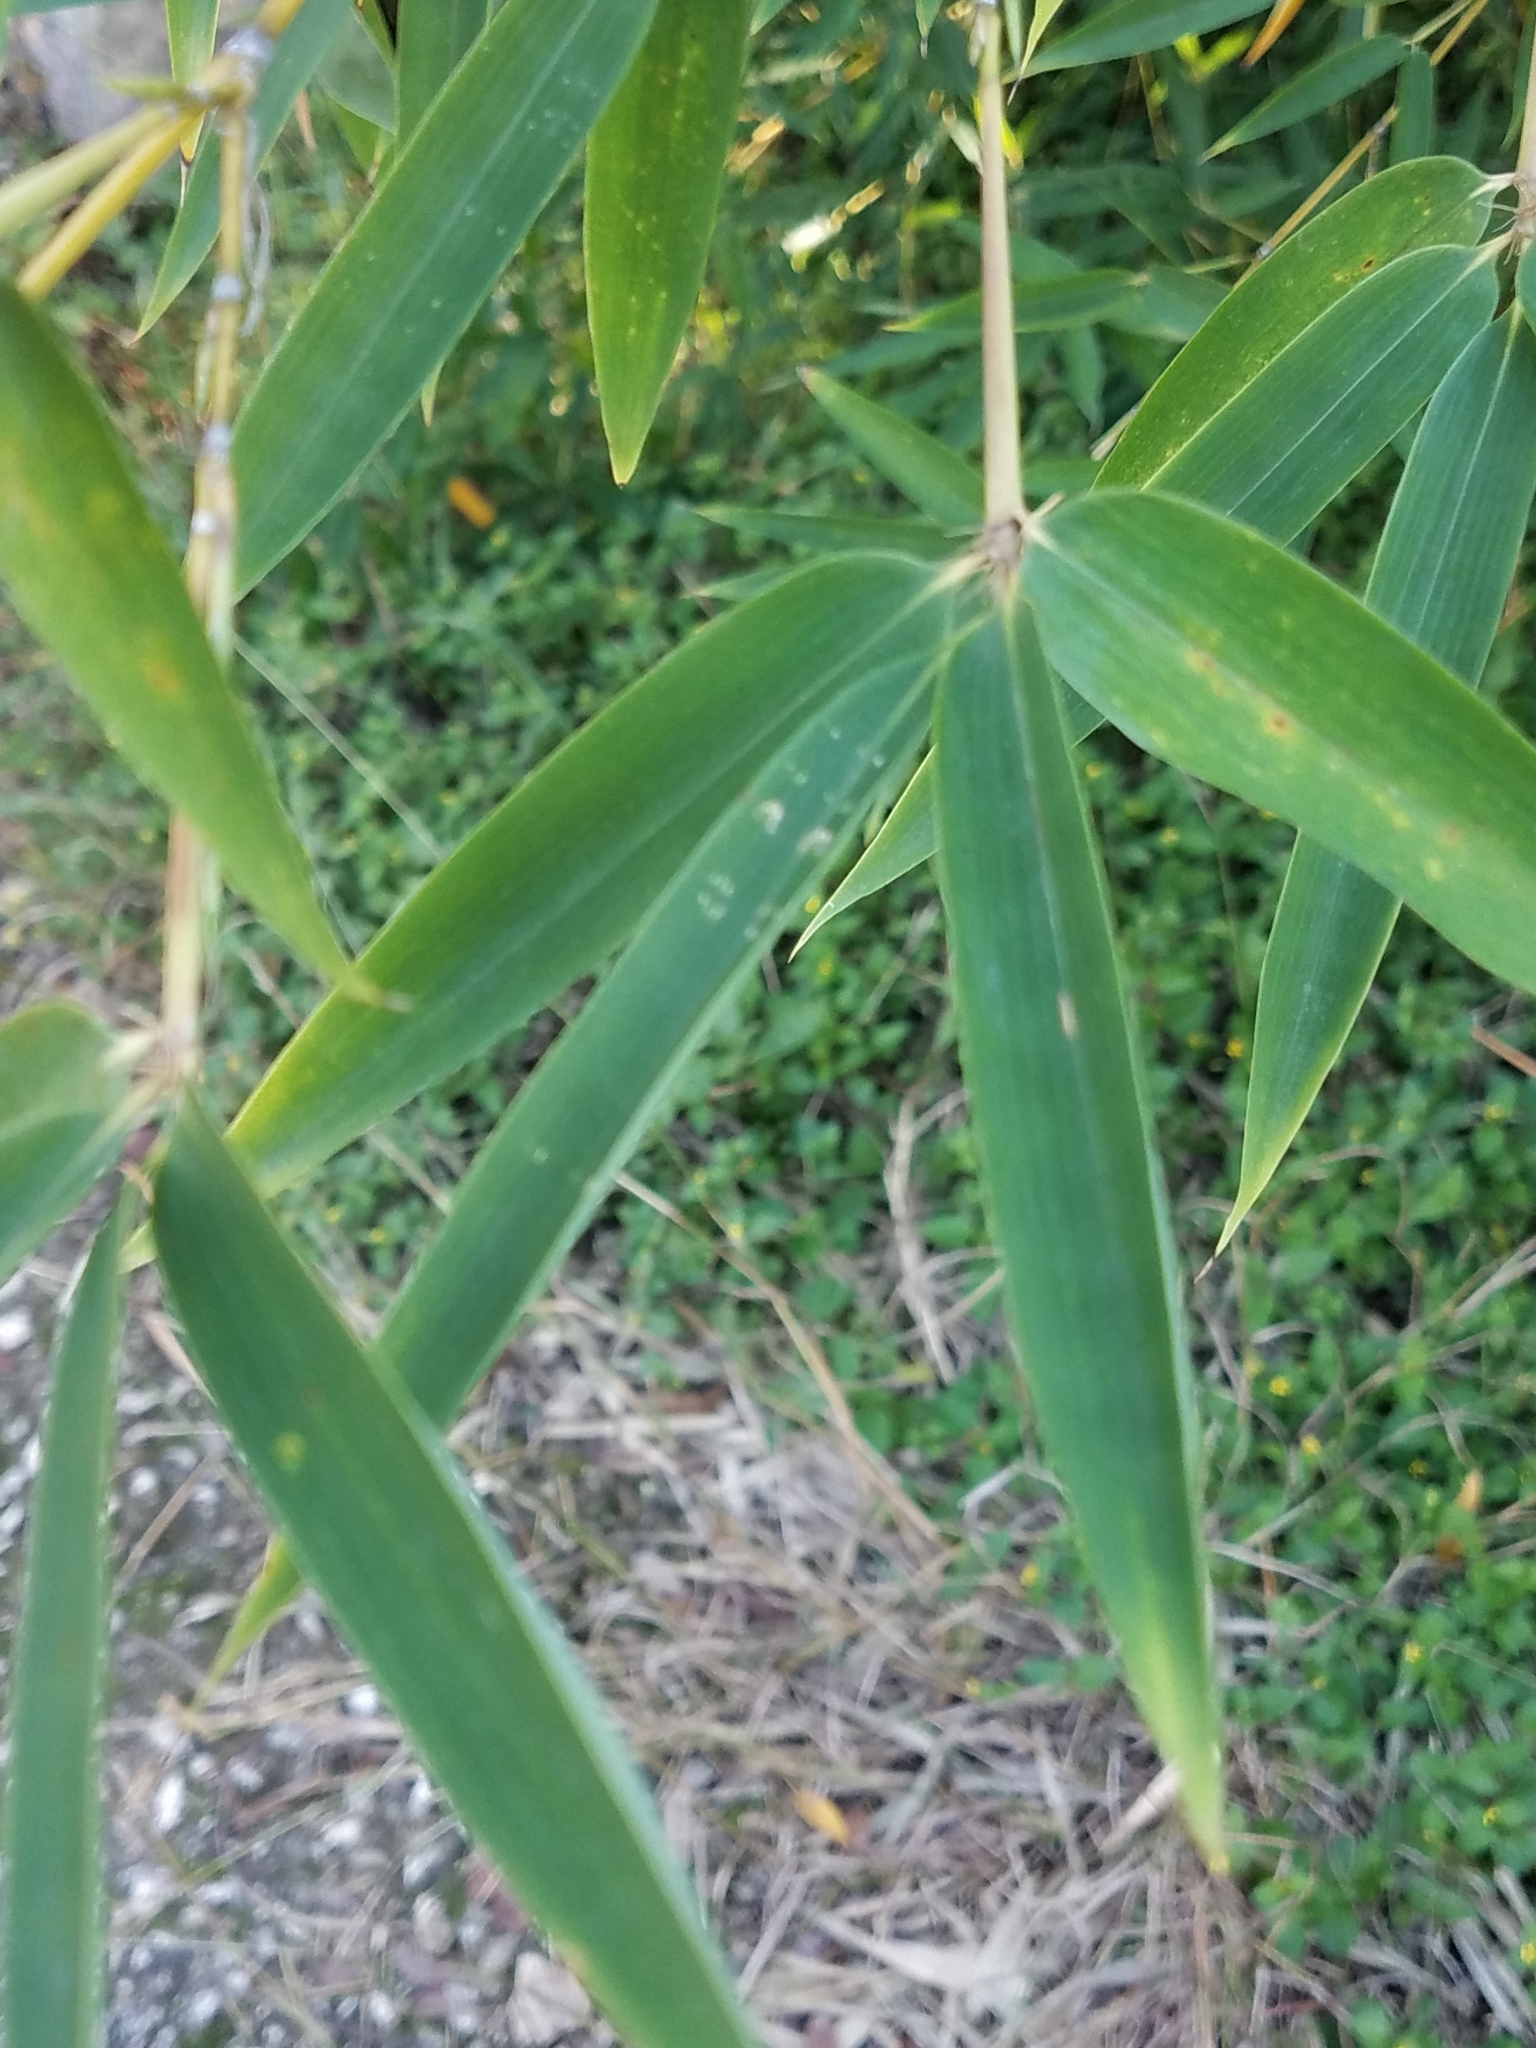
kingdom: Plantae
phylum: Tracheophyta
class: Liliopsida
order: Poales
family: Poaceae
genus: Phyllostachys
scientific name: Phyllostachys aurea
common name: Golden bamboo
